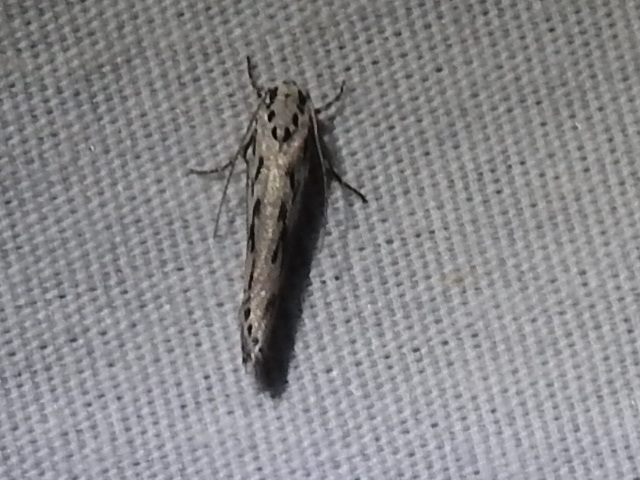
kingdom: Animalia
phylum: Arthropoda
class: Insecta
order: Lepidoptera
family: Ethmiidae
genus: Ethmia
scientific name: Ethmia semitenebrella
